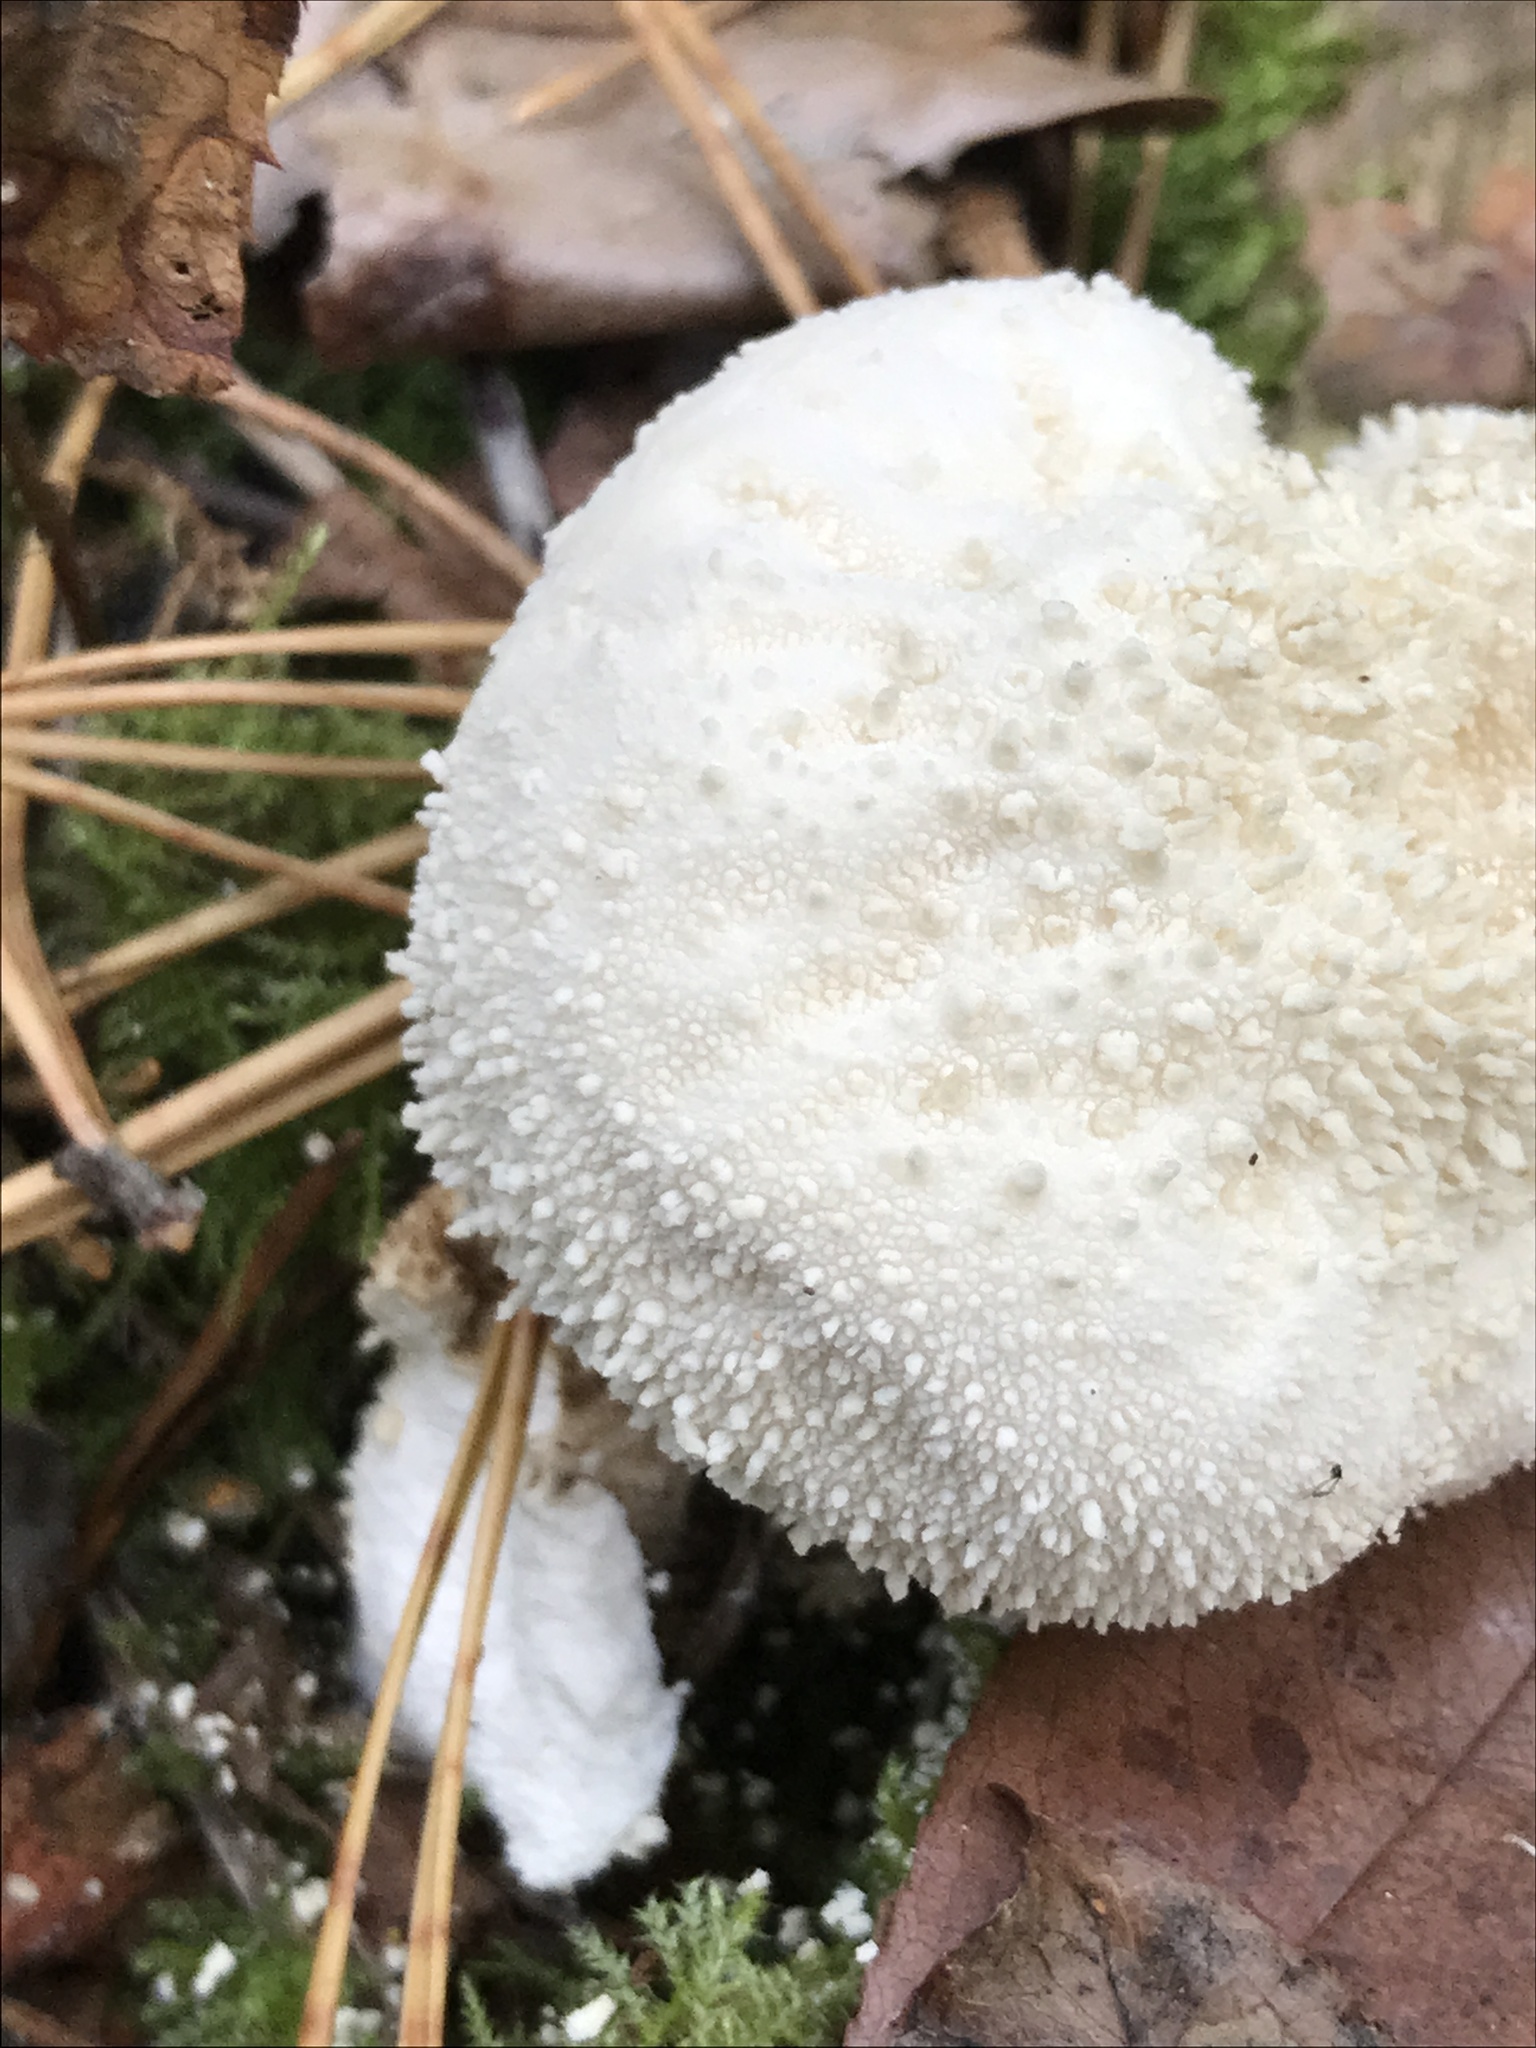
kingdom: Fungi
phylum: Basidiomycota
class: Agaricomycetes
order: Agaricales
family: Lycoperdaceae
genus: Lycoperdon
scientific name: Lycoperdon perlatum
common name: Common puffball
